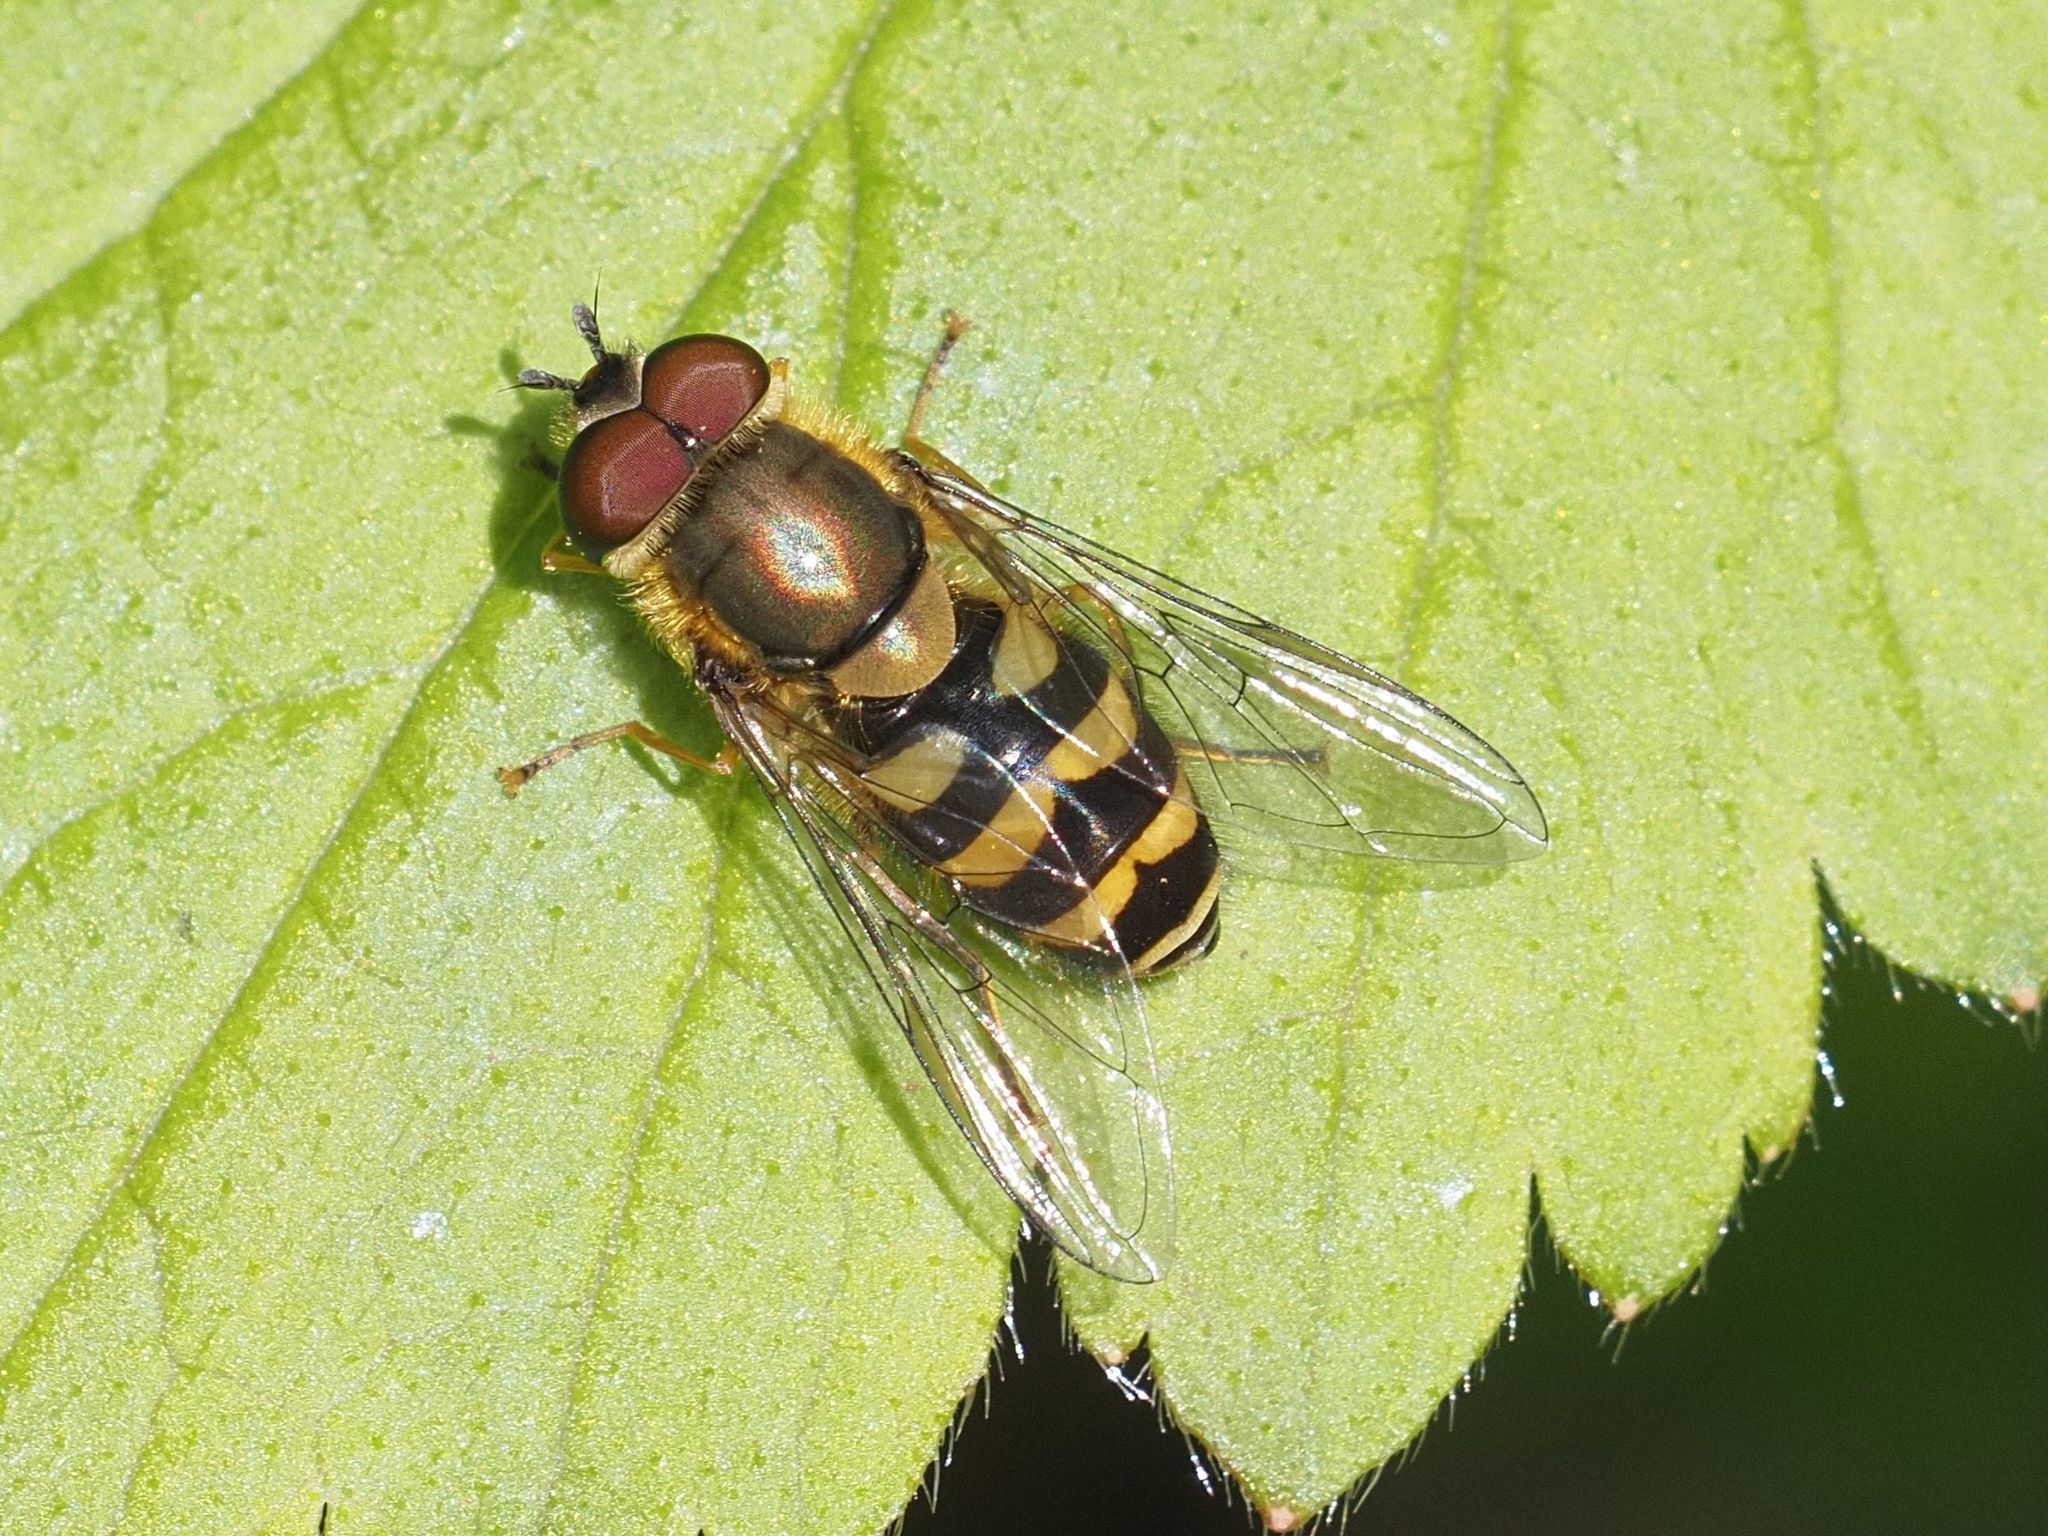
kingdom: Animalia
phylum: Arthropoda
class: Insecta
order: Diptera
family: Syrphidae
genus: Syrphus
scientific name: Syrphus
